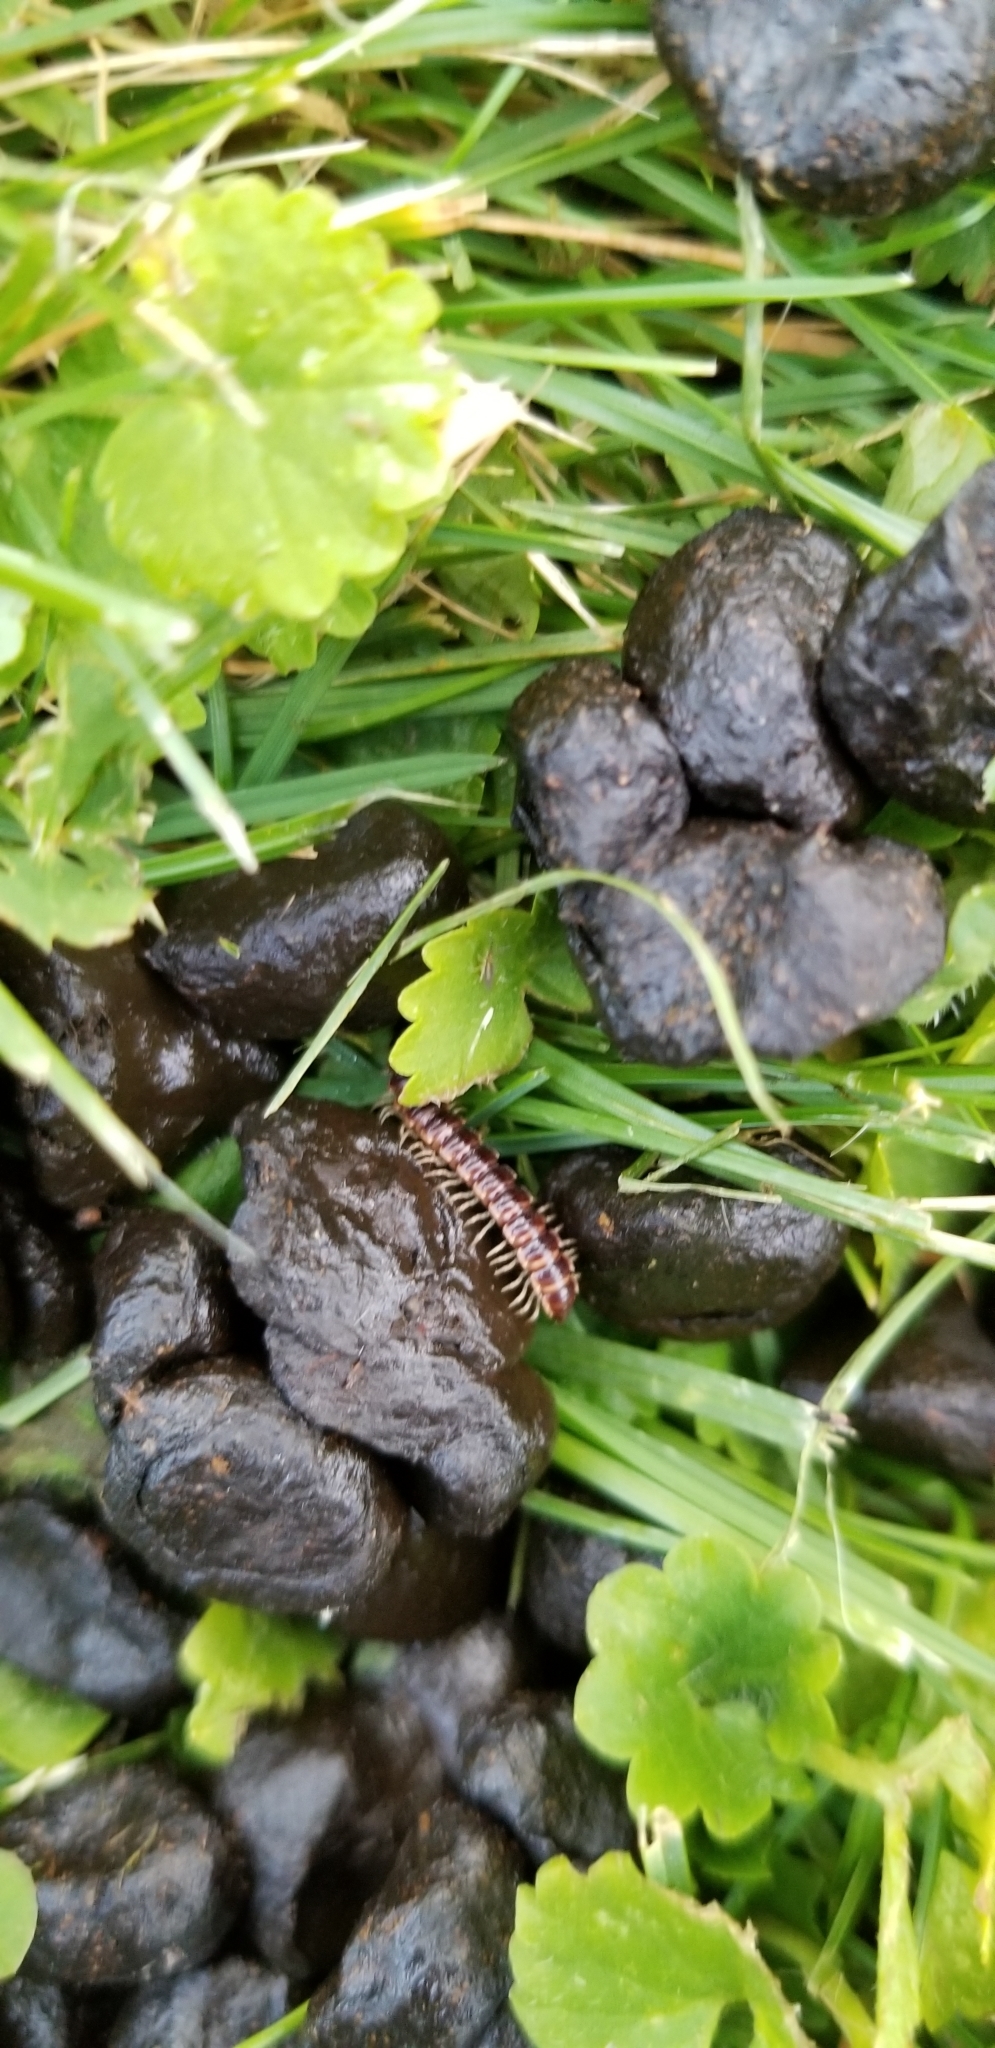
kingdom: Animalia
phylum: Arthropoda
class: Diplopoda
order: Polydesmida
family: Paradoxosomatidae
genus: Oxidus
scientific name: Oxidus gracilis
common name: Greenhouse millipede
